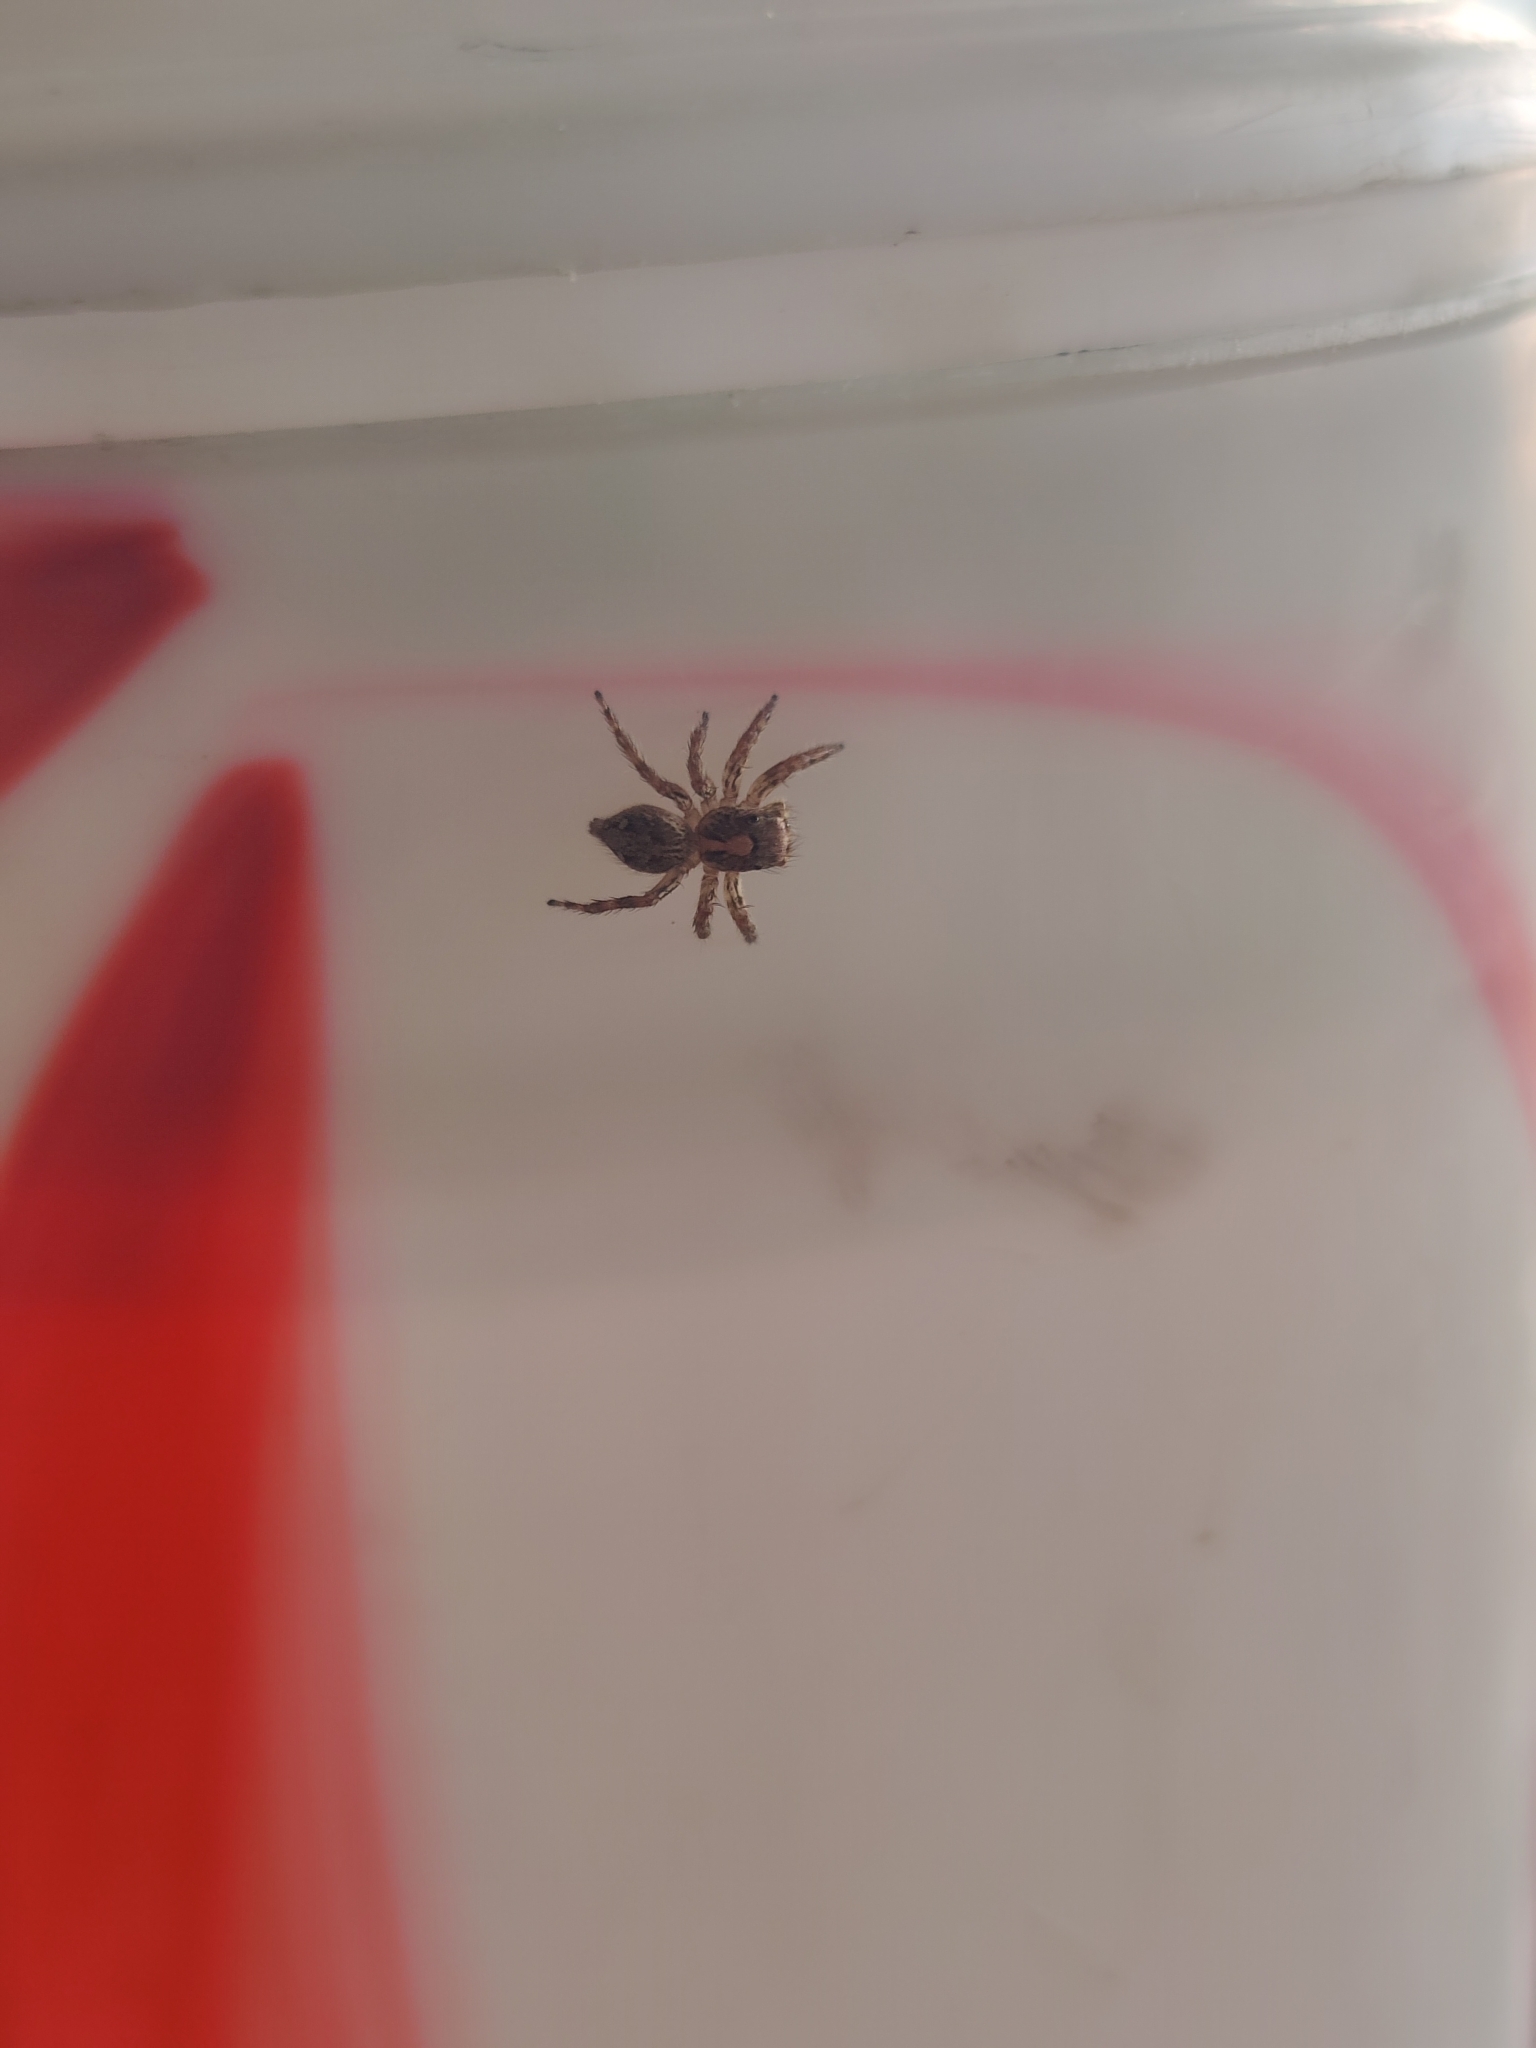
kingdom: Animalia
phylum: Arthropoda
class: Arachnida
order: Araneae
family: Salticidae
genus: Plexippus
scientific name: Plexippus petersi
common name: Jumping spider
